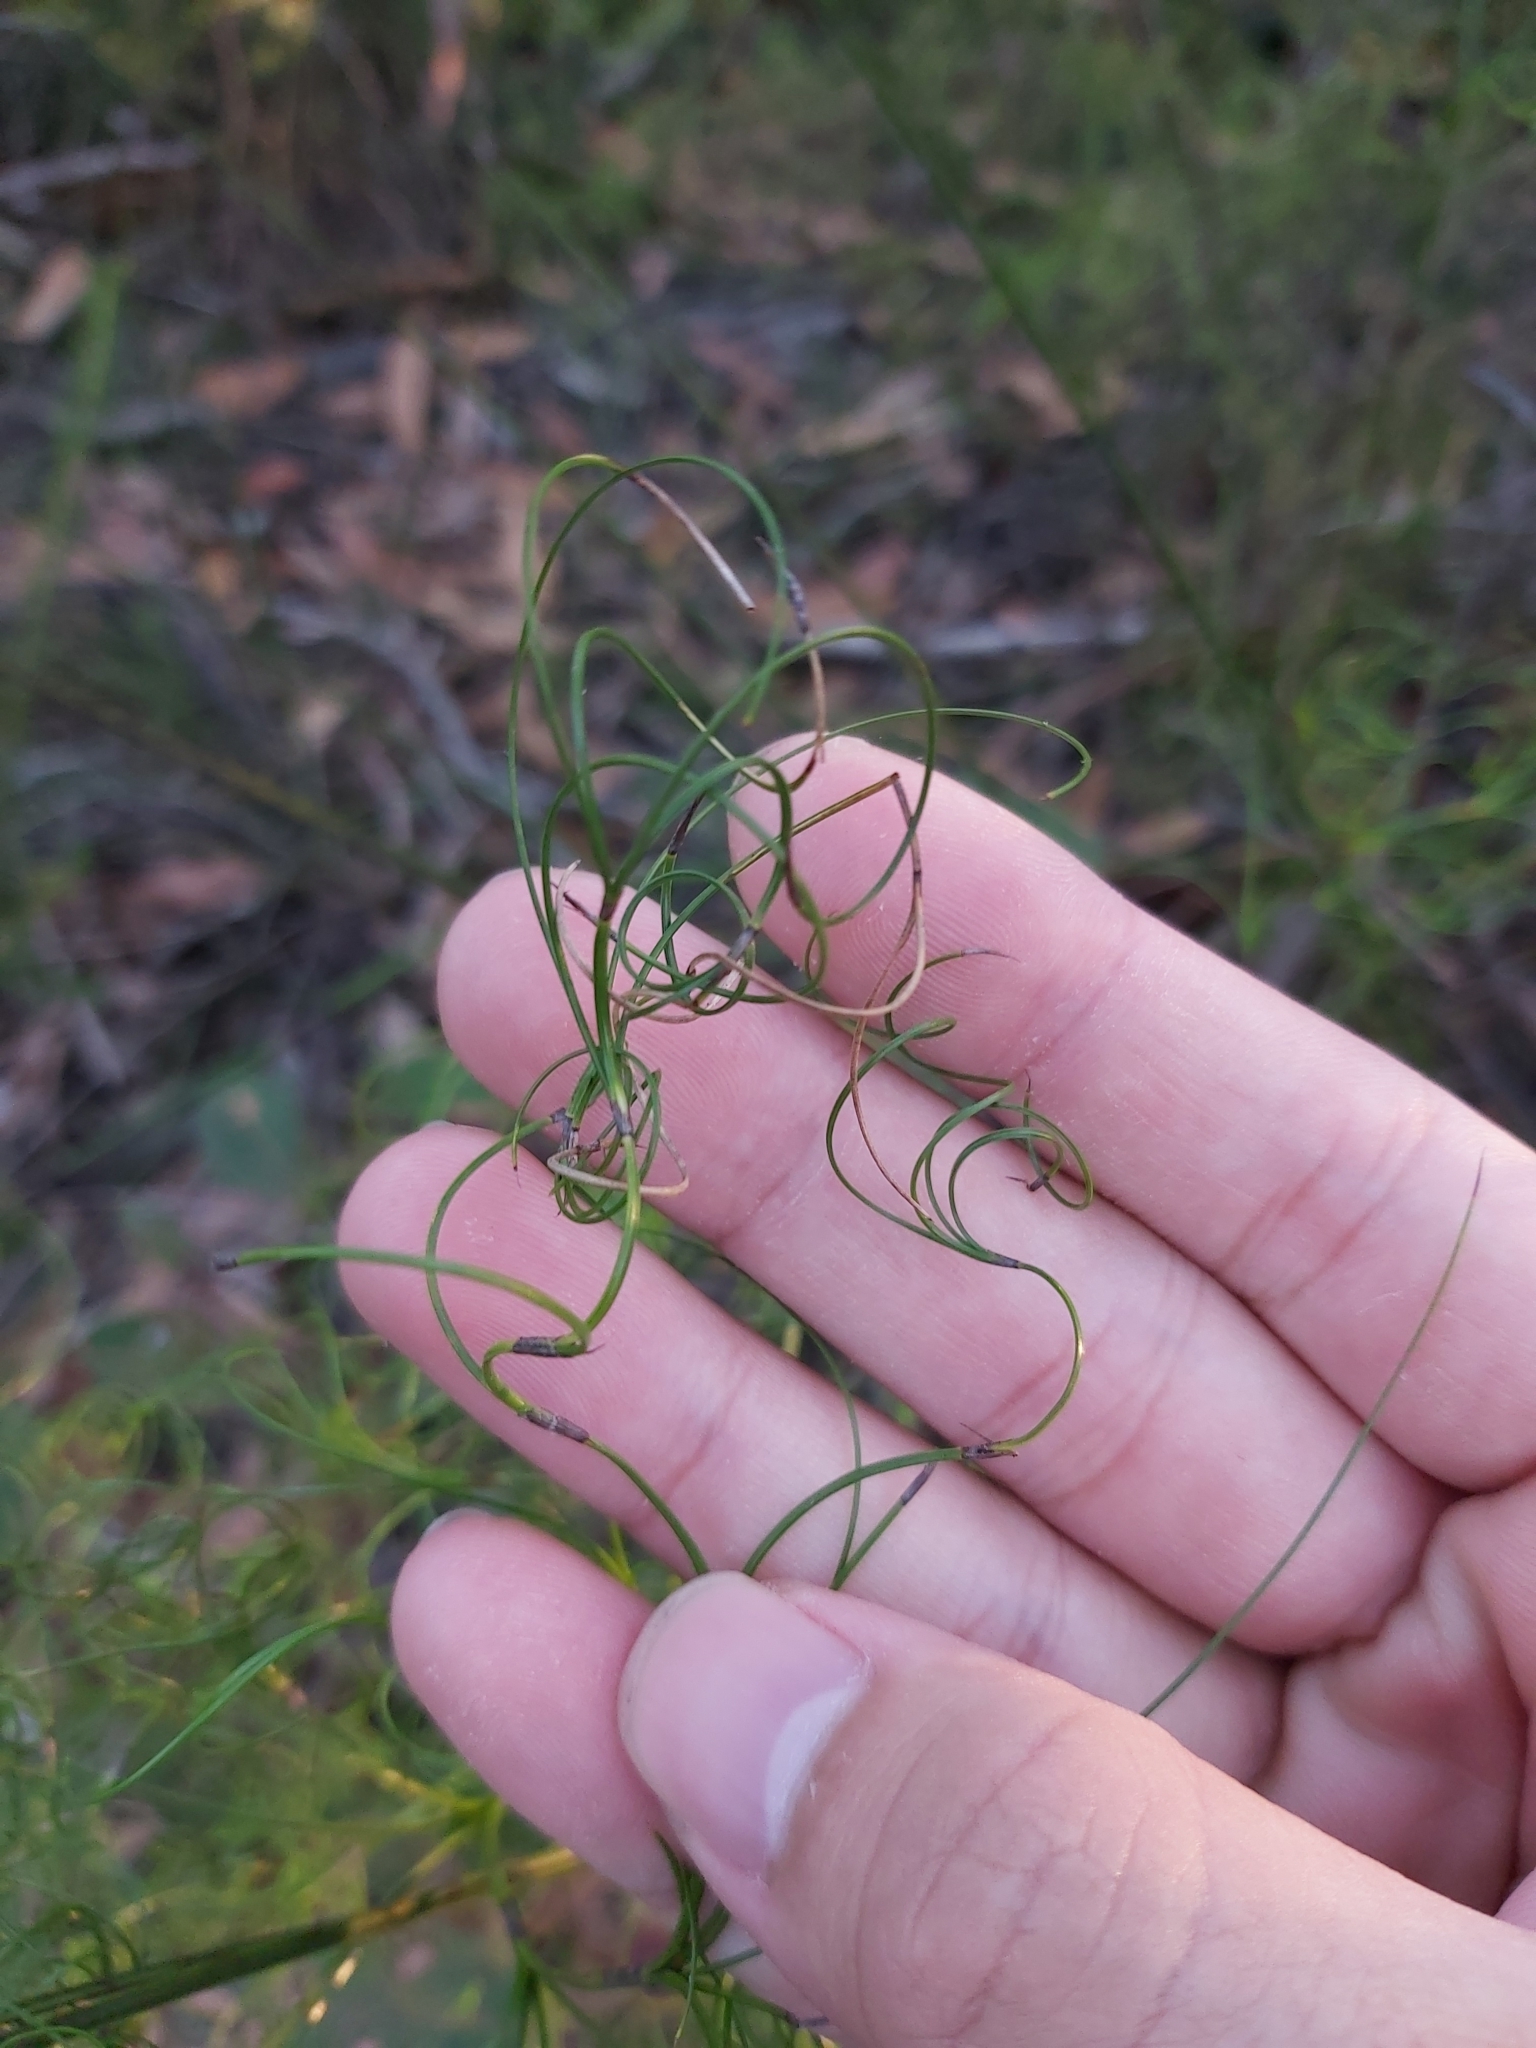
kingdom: Plantae
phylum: Tracheophyta
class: Liliopsida
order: Poales
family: Cyperaceae
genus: Caustis
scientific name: Caustis flexuosa
